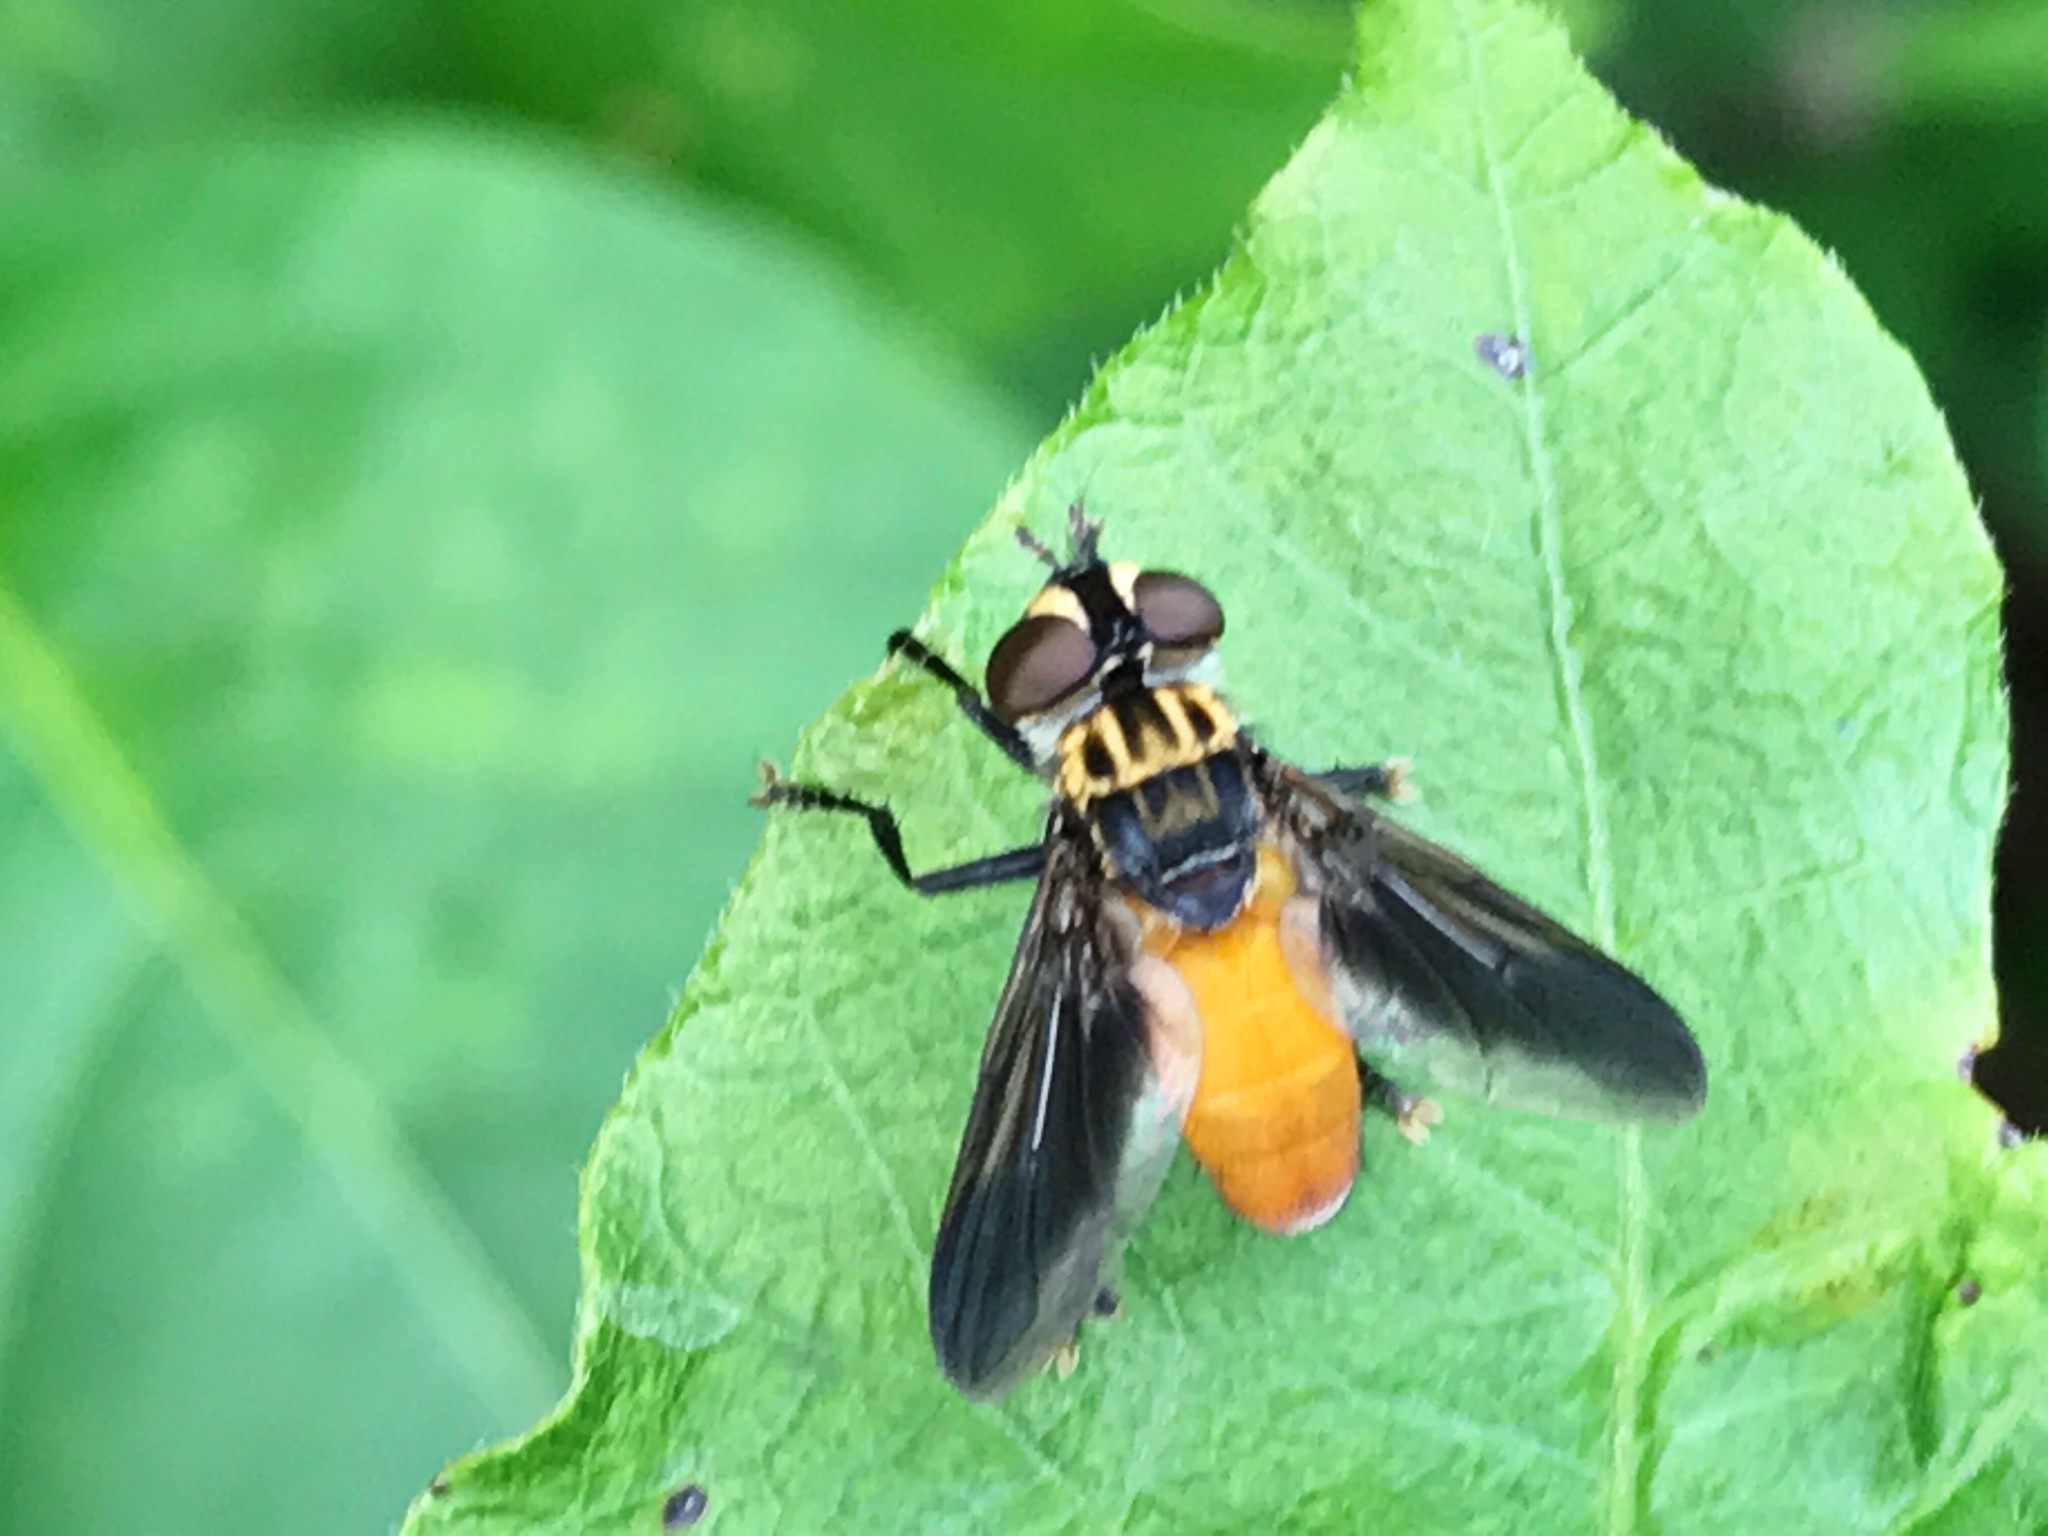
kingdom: Animalia
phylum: Arthropoda
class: Insecta
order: Diptera
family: Tachinidae
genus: Trichopoda
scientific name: Trichopoda pennipes
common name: Tachinid fly
